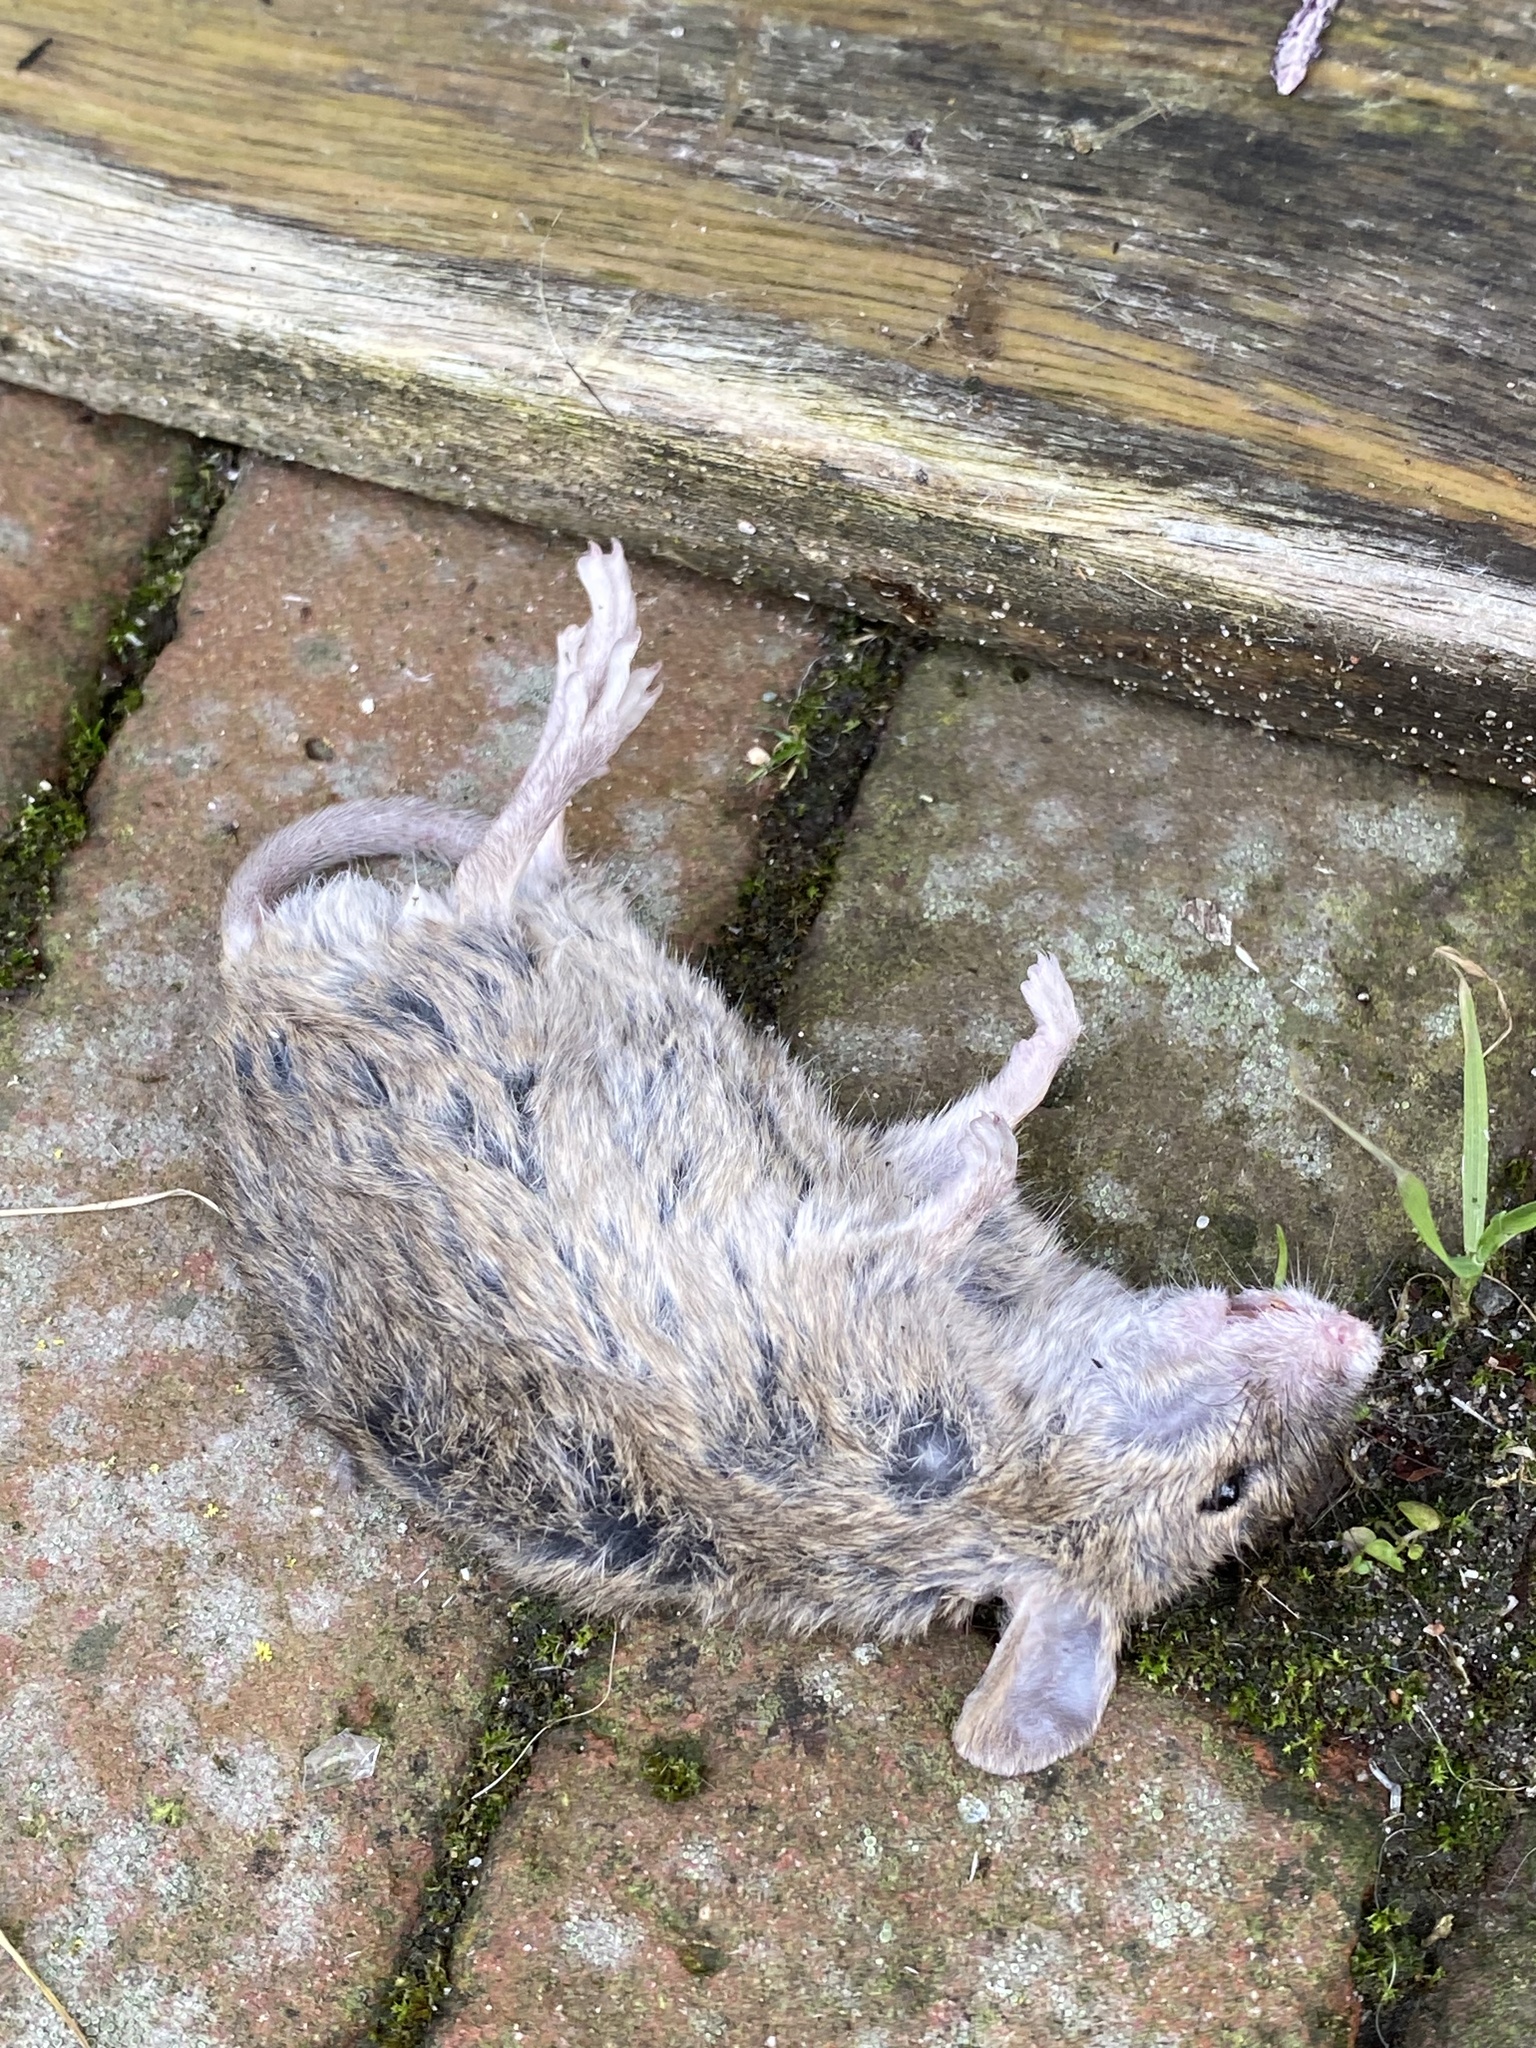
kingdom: Animalia
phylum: Chordata
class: Mammalia
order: Rodentia
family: Muridae
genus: Mus
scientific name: Mus musculus
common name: House mouse
